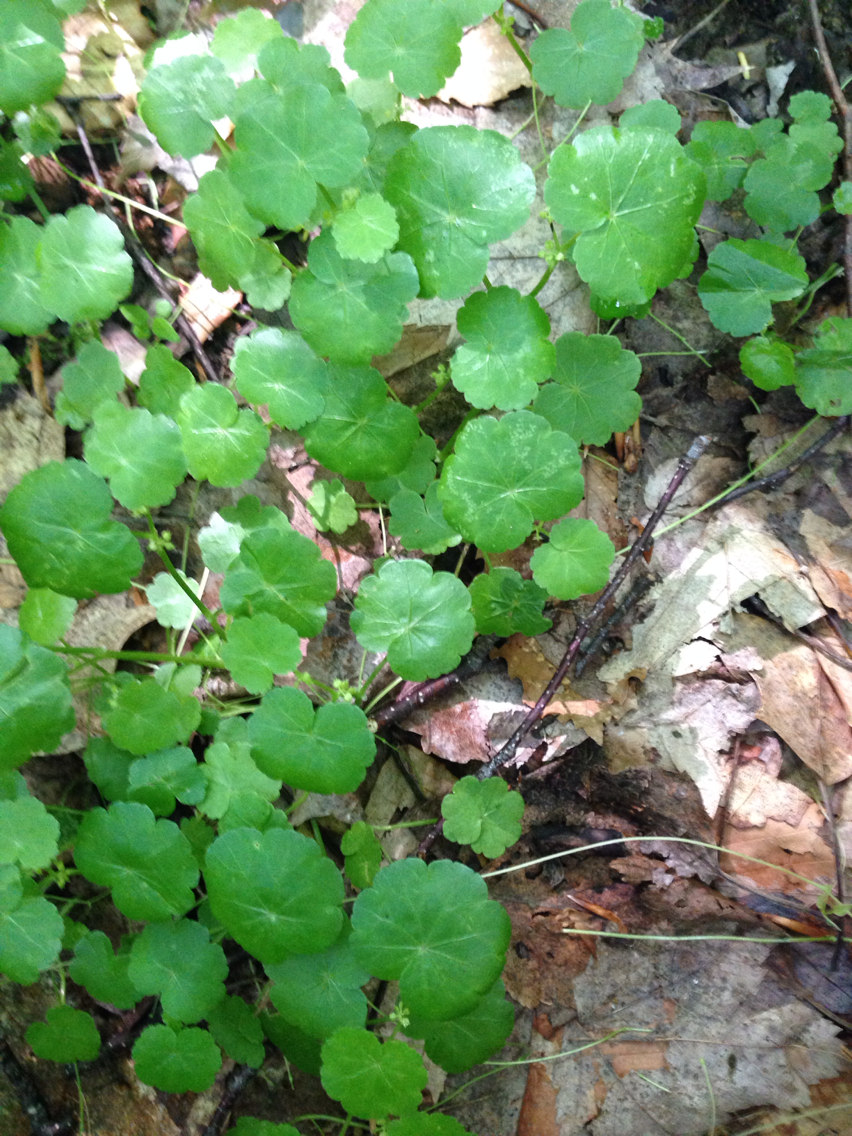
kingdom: Plantae
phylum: Tracheophyta
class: Magnoliopsida
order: Apiales
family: Araliaceae
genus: Hydrocotyle
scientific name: Hydrocotyle americana
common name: American water-pennywort
